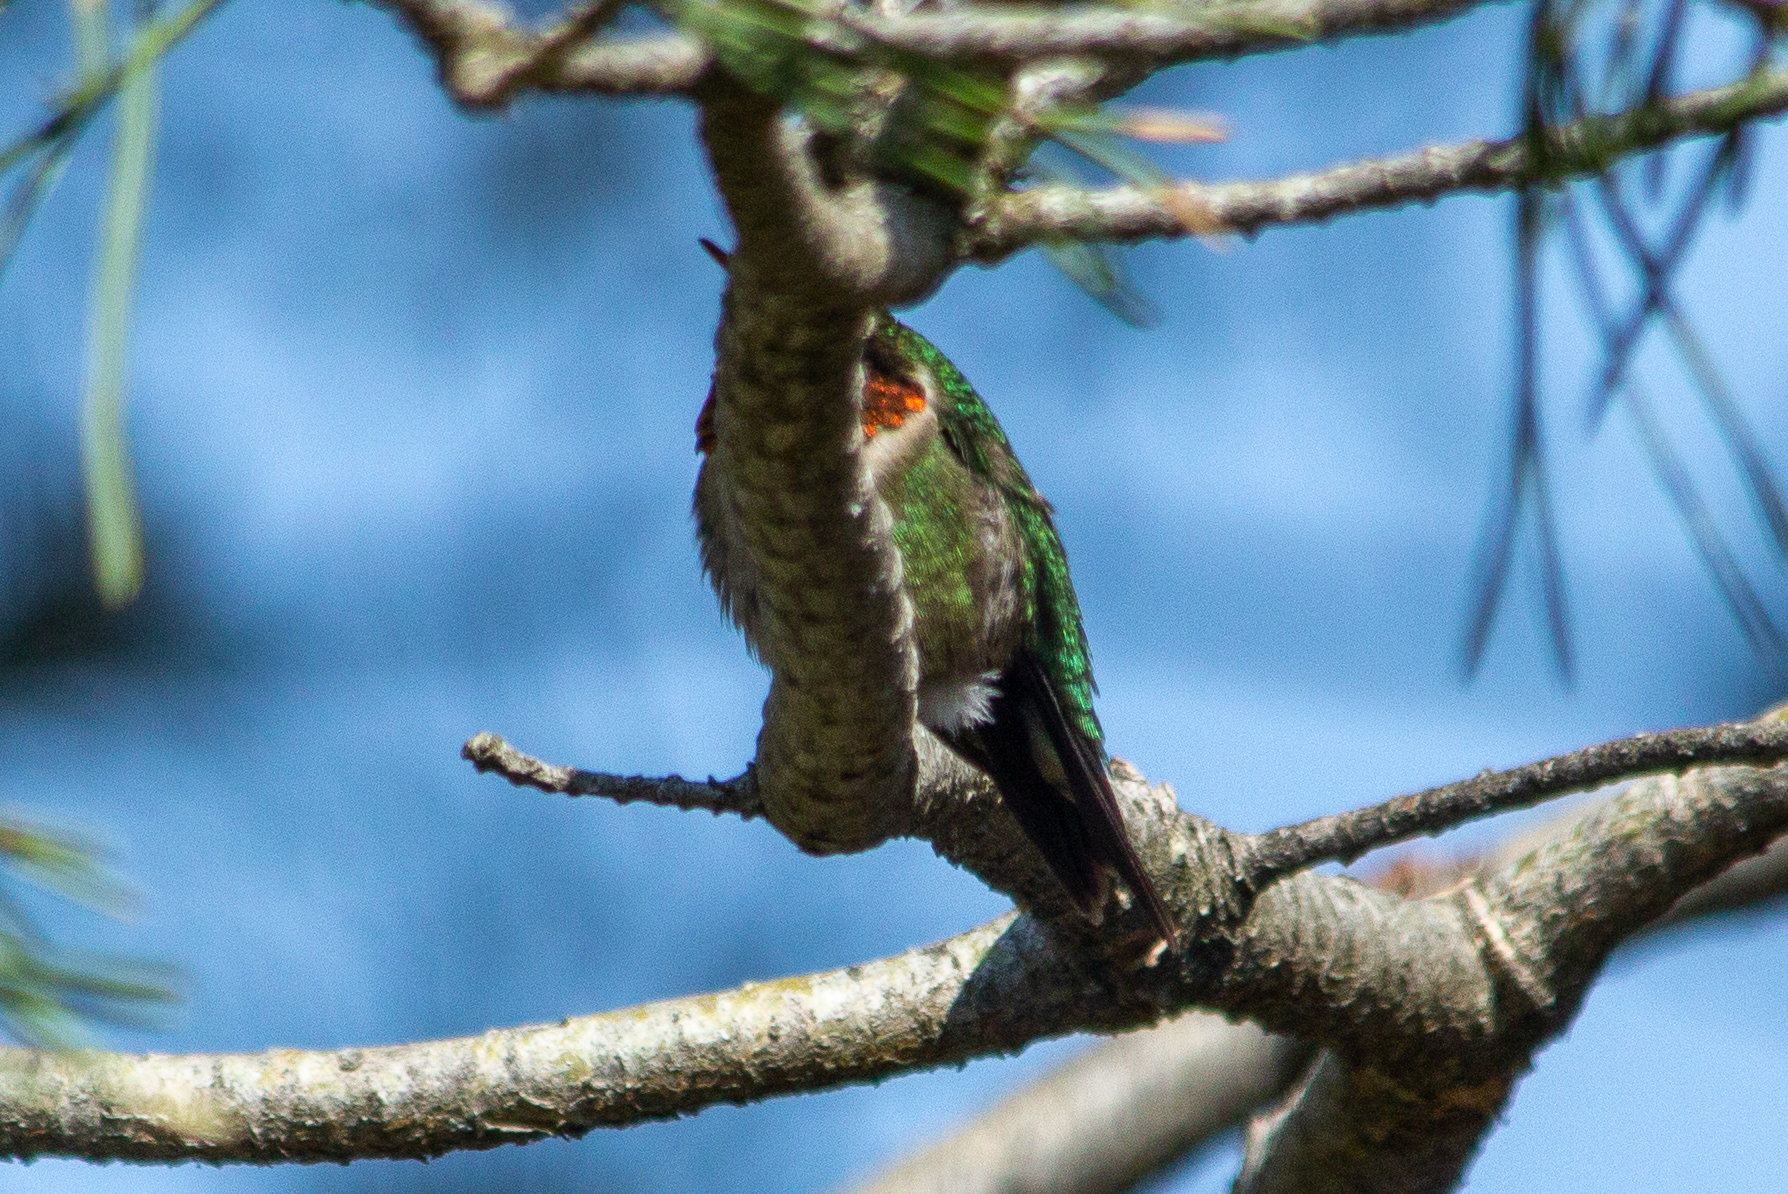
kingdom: Animalia
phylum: Chordata
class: Aves
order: Apodiformes
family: Trochilidae
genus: Archilochus
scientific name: Archilochus colubris
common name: Ruby-throated hummingbird
